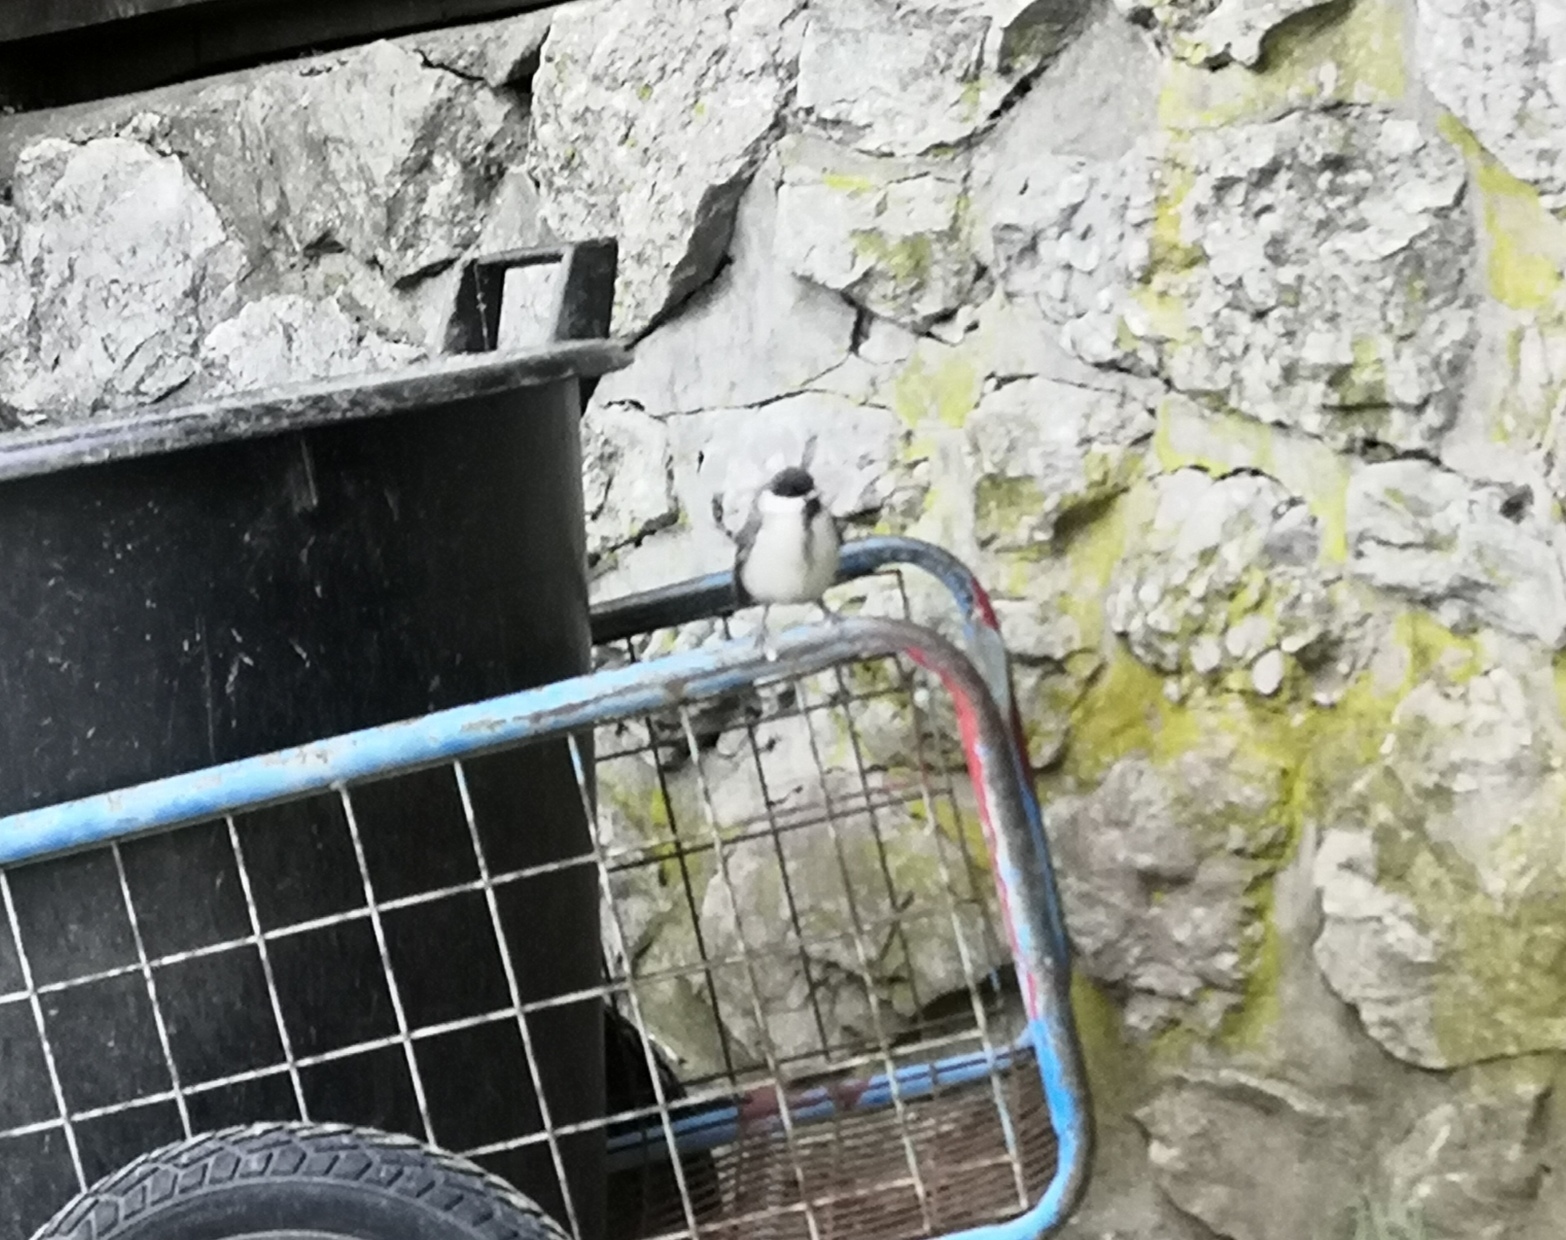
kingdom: Animalia
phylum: Chordata
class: Aves
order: Passeriformes
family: Paridae
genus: Parus
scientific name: Parus major
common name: Great tit
